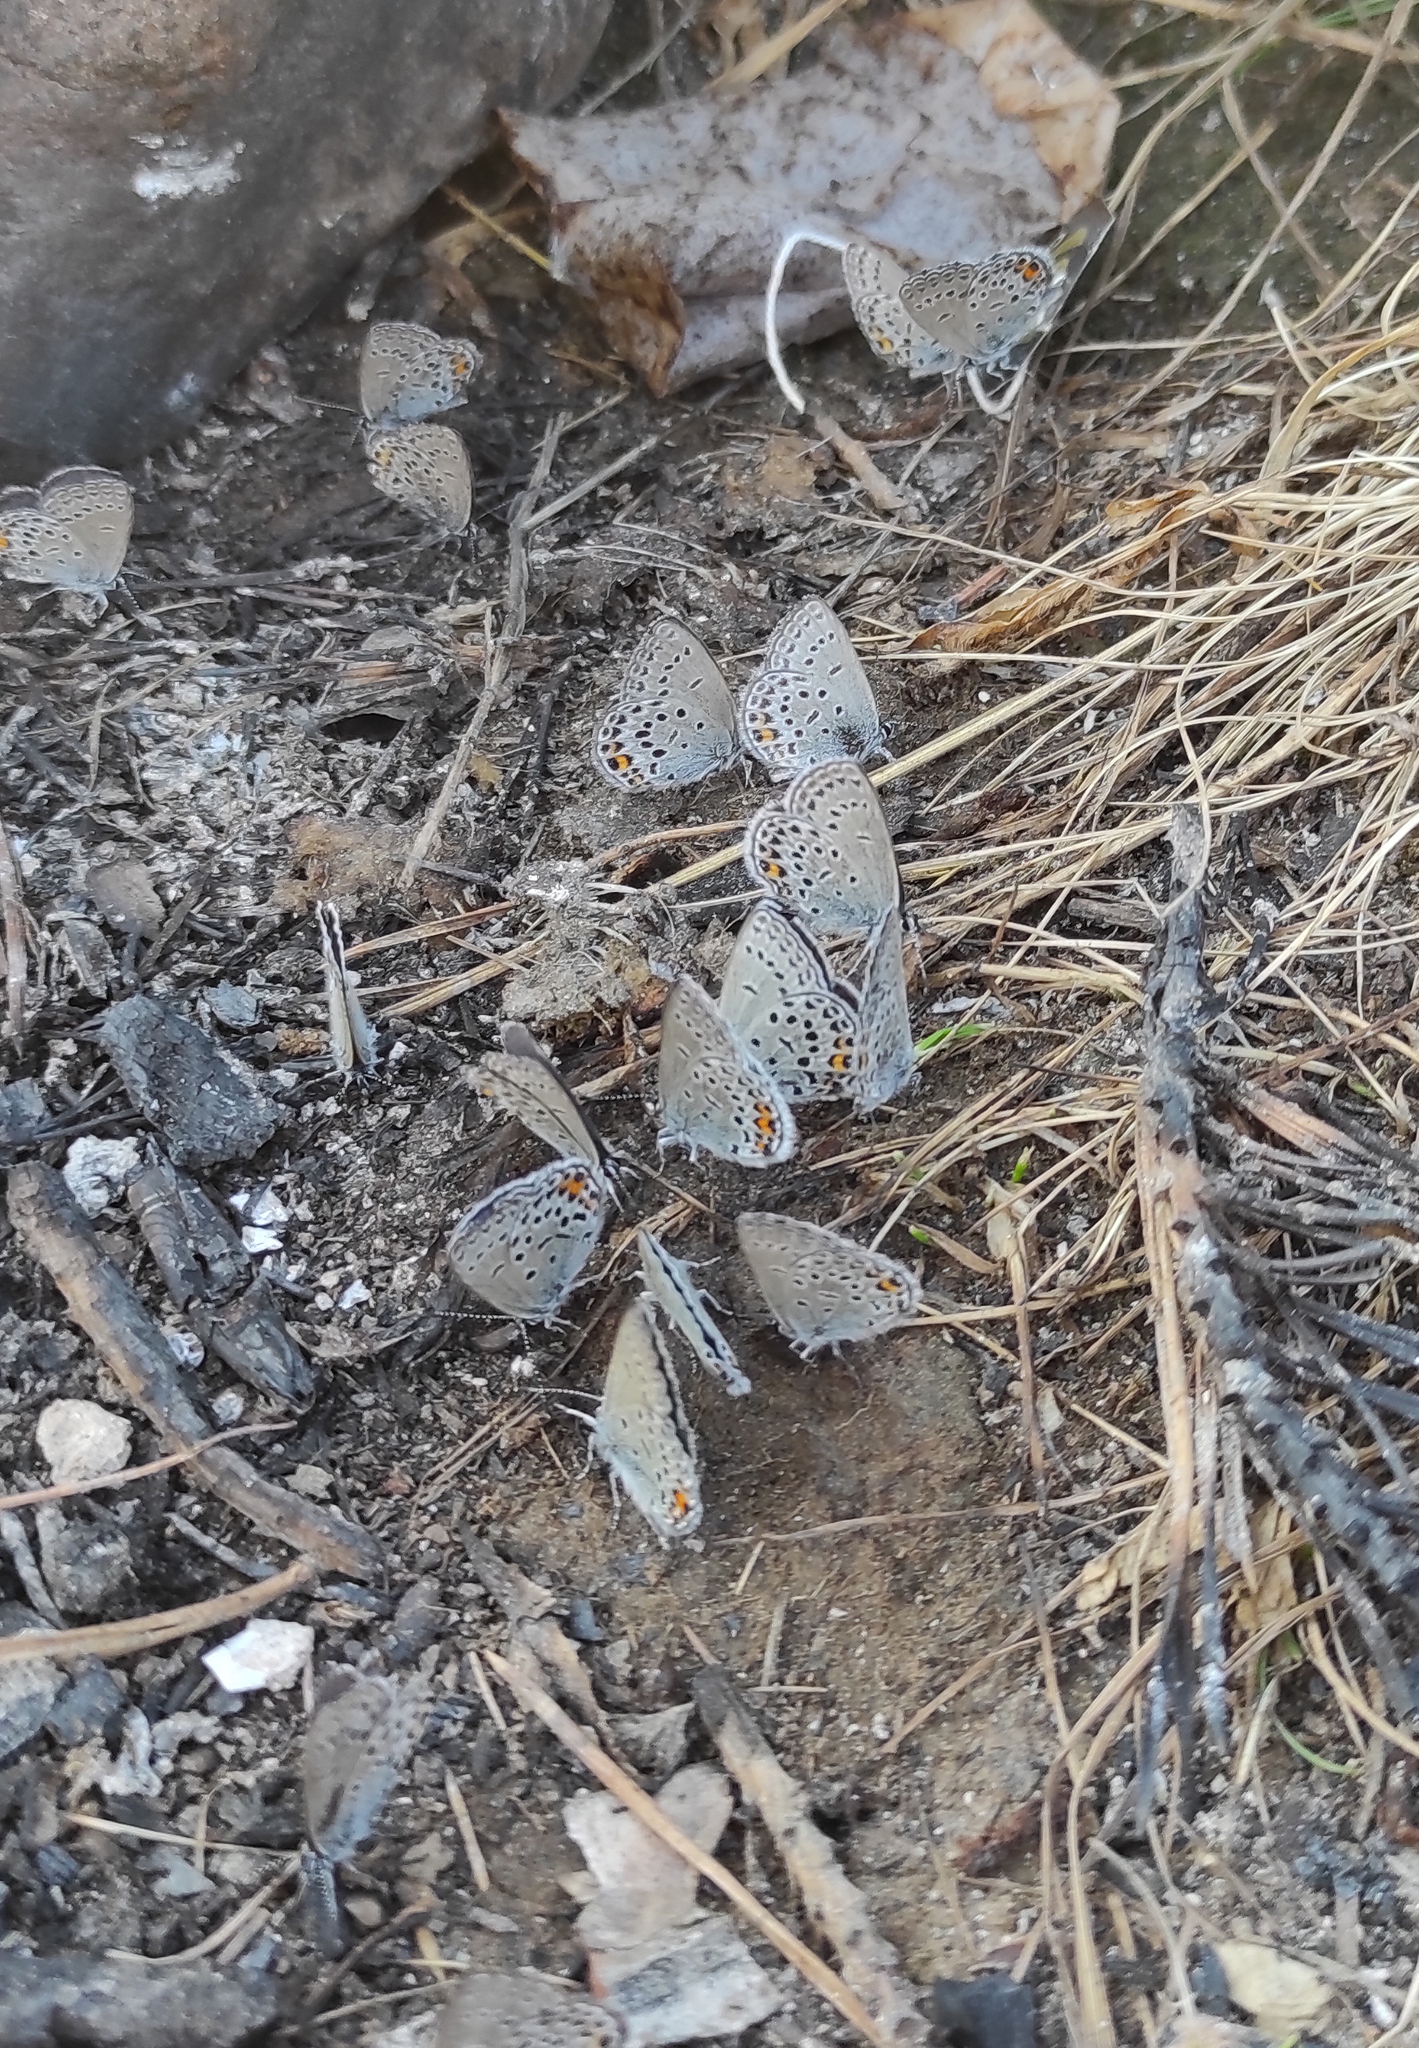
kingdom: Animalia
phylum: Arthropoda
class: Insecta
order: Lepidoptera
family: Lycaenidae
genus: Vacciniina
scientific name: Vacciniina optilete
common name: Cranberry blue
